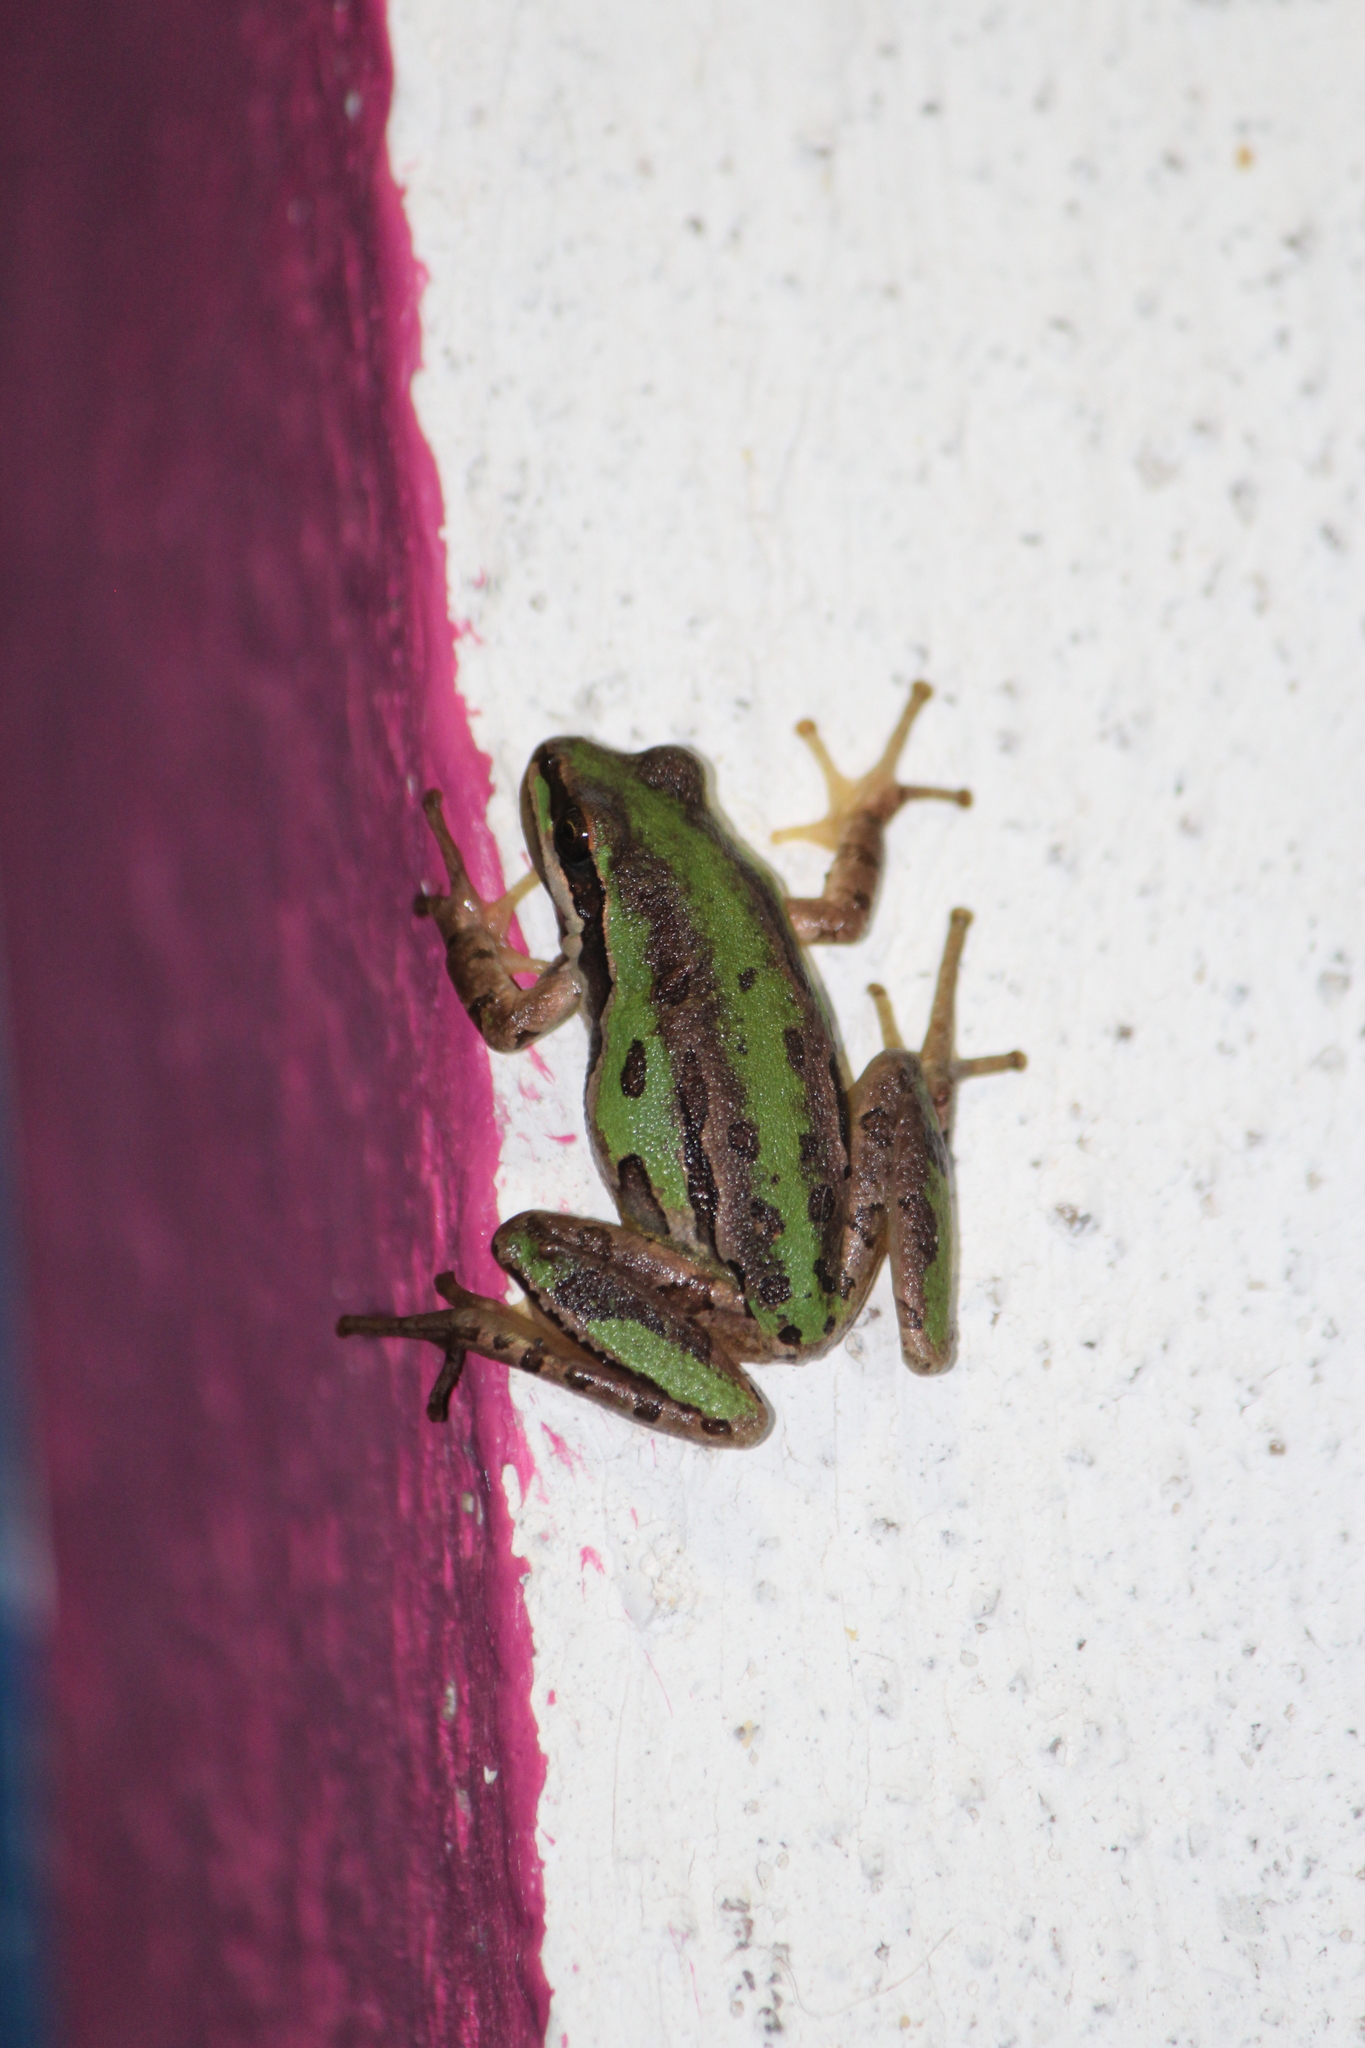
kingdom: Animalia
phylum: Chordata
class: Amphibia
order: Anura
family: Hylidae
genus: Dryophytes
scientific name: Dryophytes eximius
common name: Mountain treefrog
